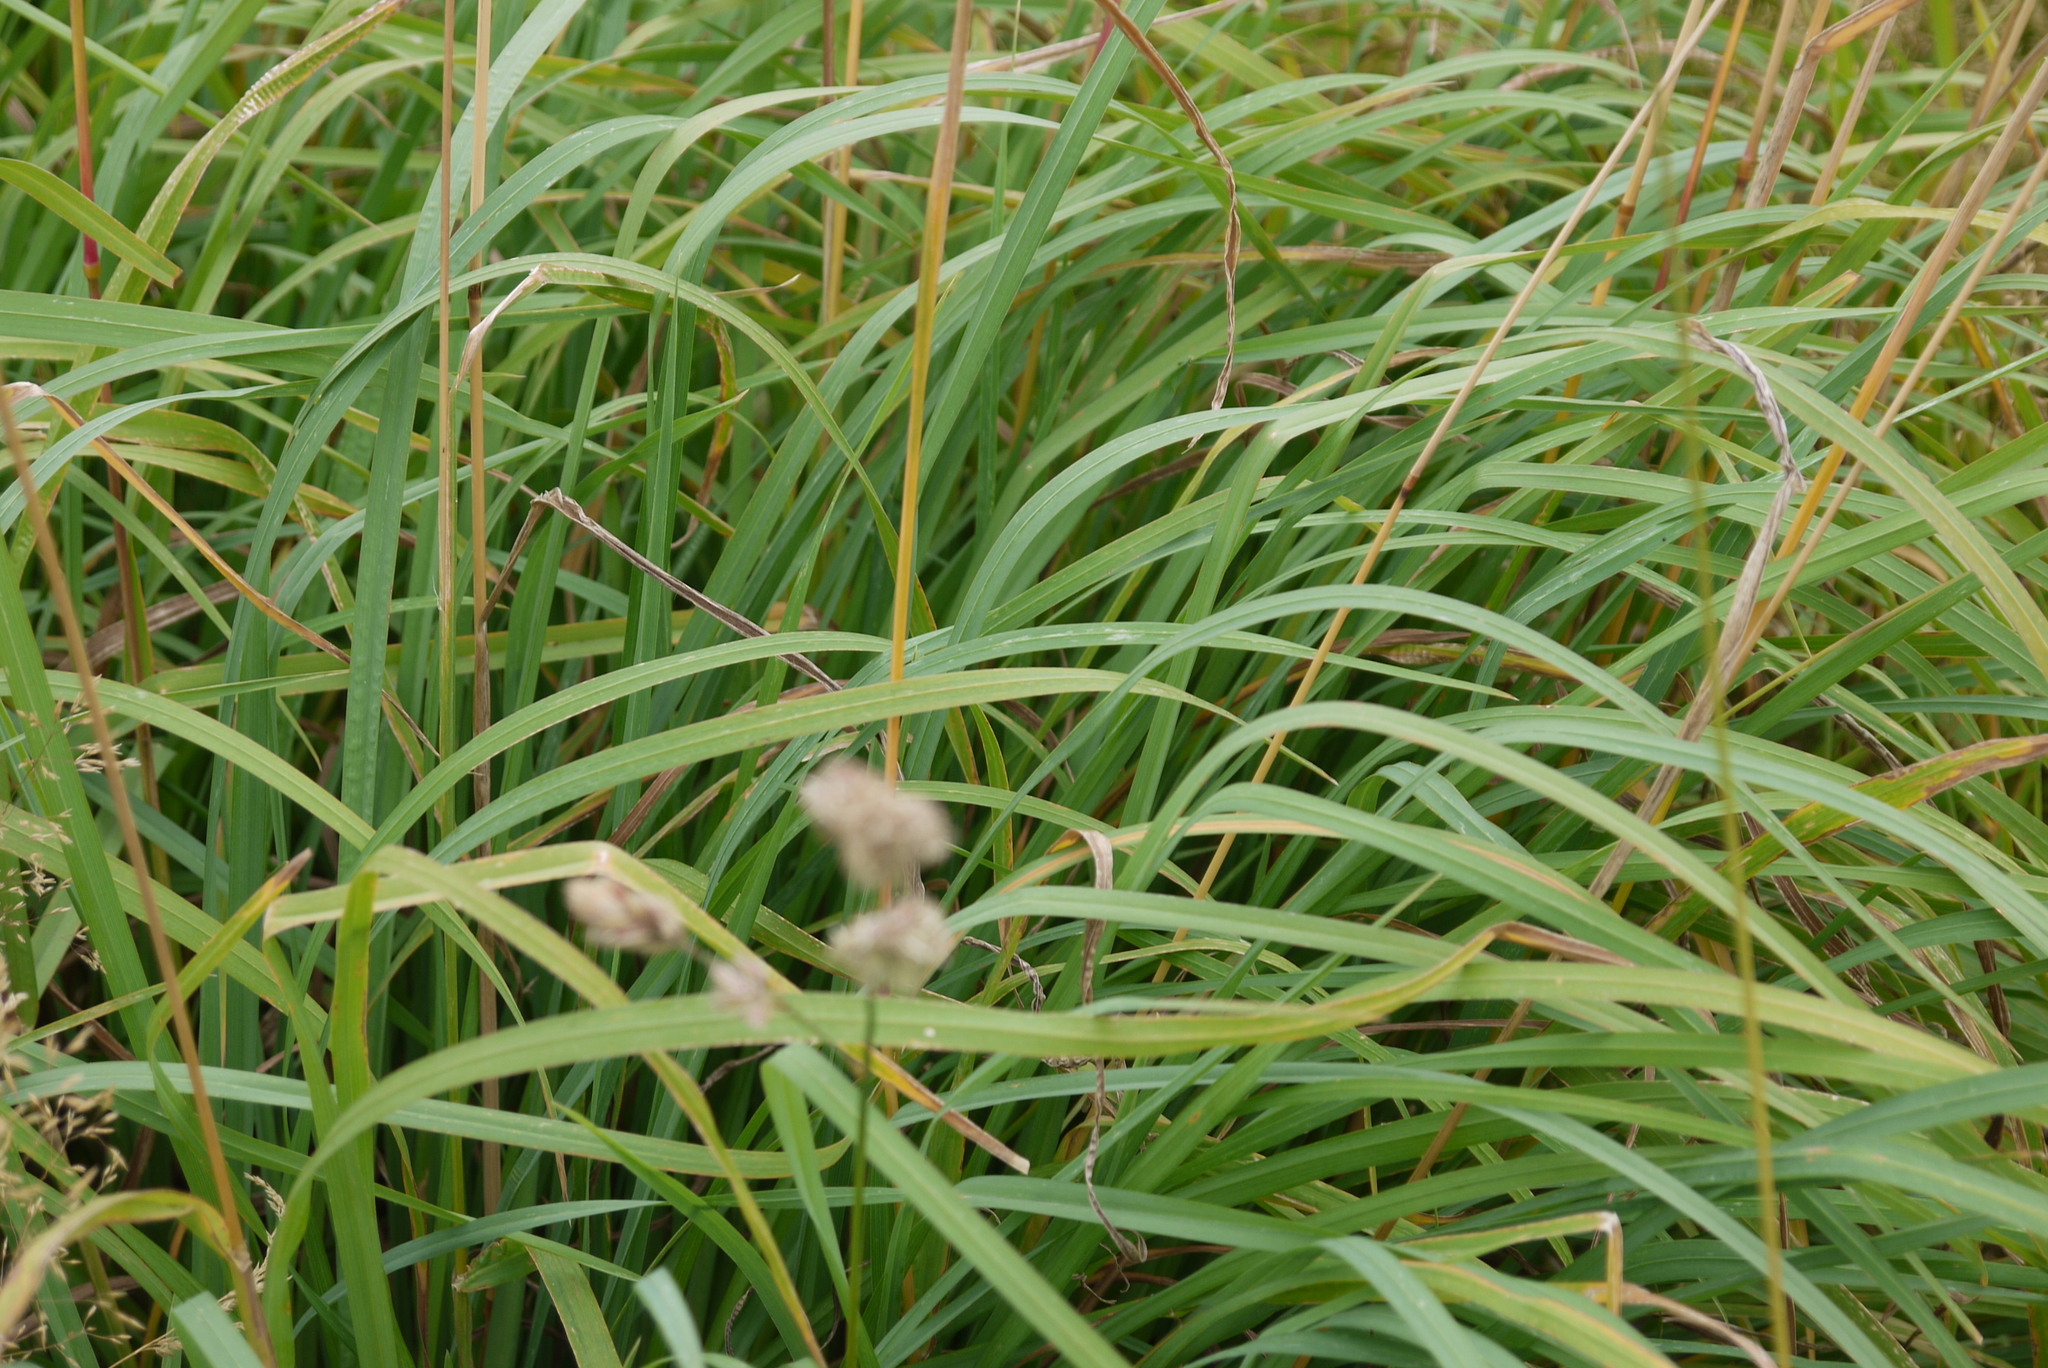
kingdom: Plantae
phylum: Tracheophyta
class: Liliopsida
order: Poales
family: Poaceae
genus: Dactylis
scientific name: Dactylis glomerata
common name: Orchardgrass
